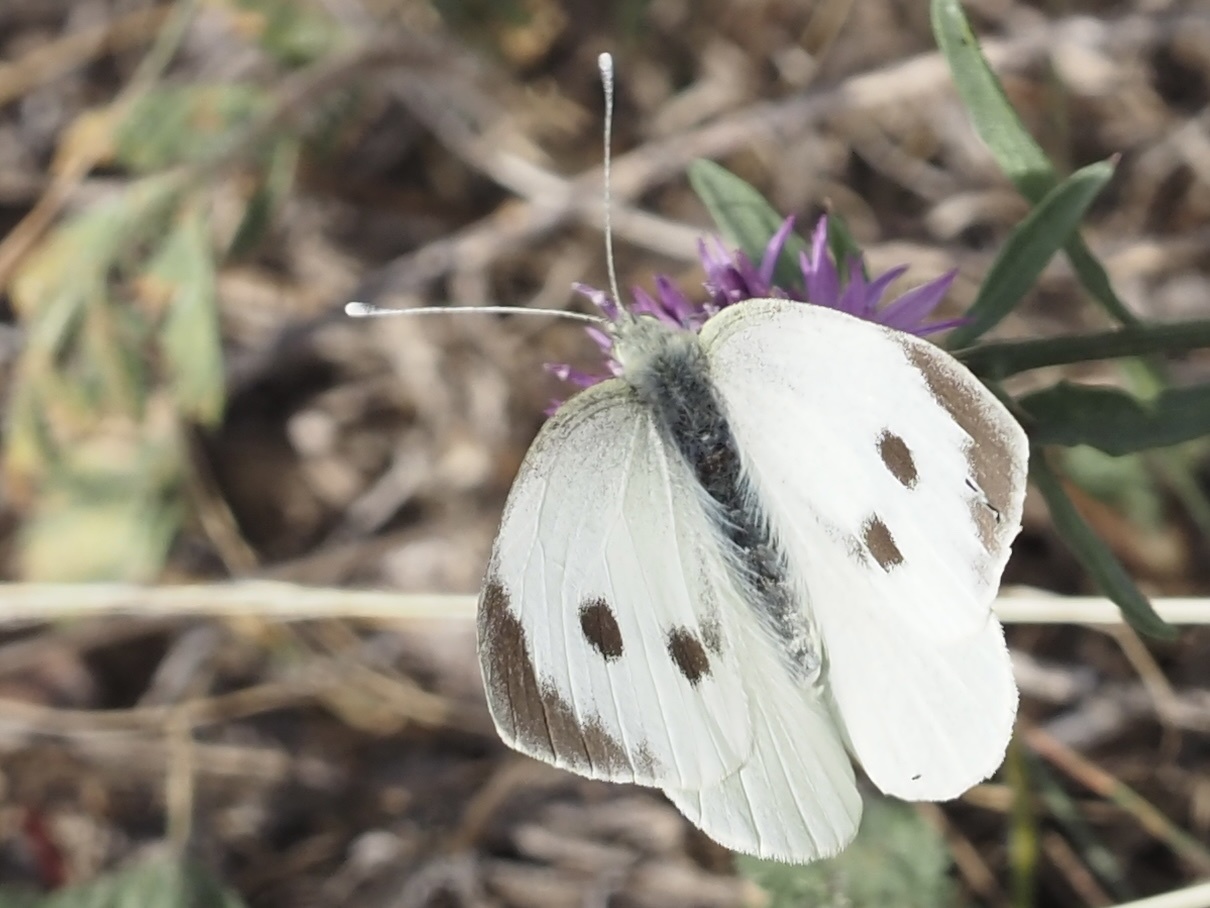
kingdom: Animalia
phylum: Arthropoda
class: Insecta
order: Lepidoptera
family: Pieridae
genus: Pieris
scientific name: Pieris brassicae
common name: Large white
